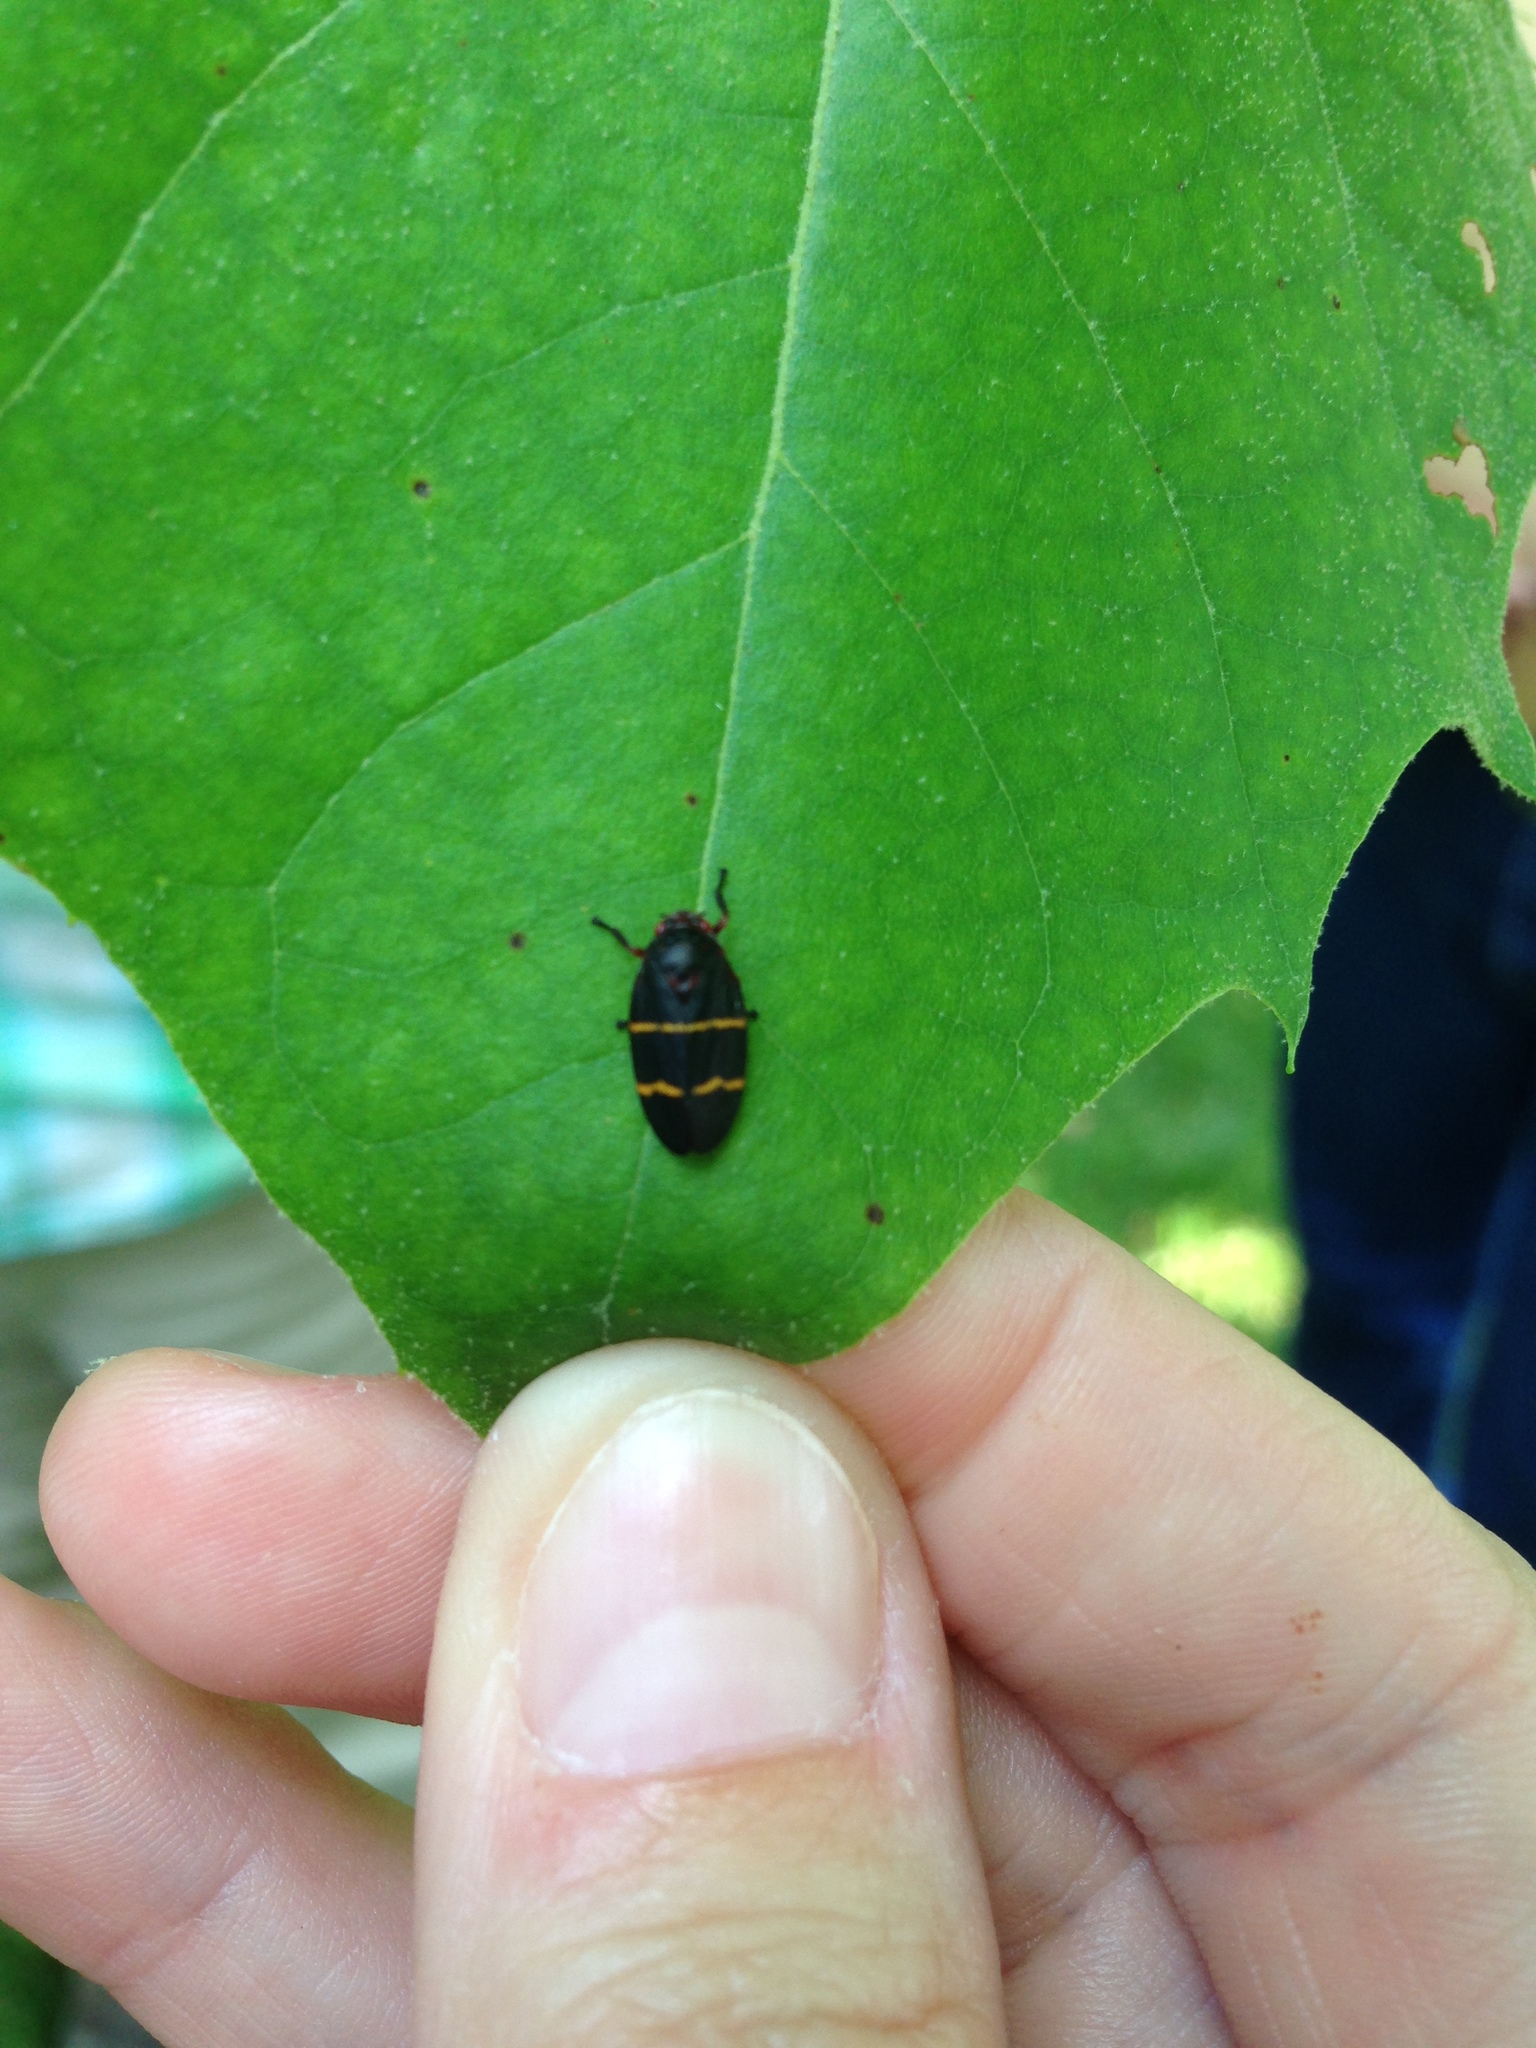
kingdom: Animalia
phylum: Arthropoda
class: Insecta
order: Hemiptera
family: Cercopidae
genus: Prosapia
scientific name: Prosapia bicincta
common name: Twolined spittlebug
